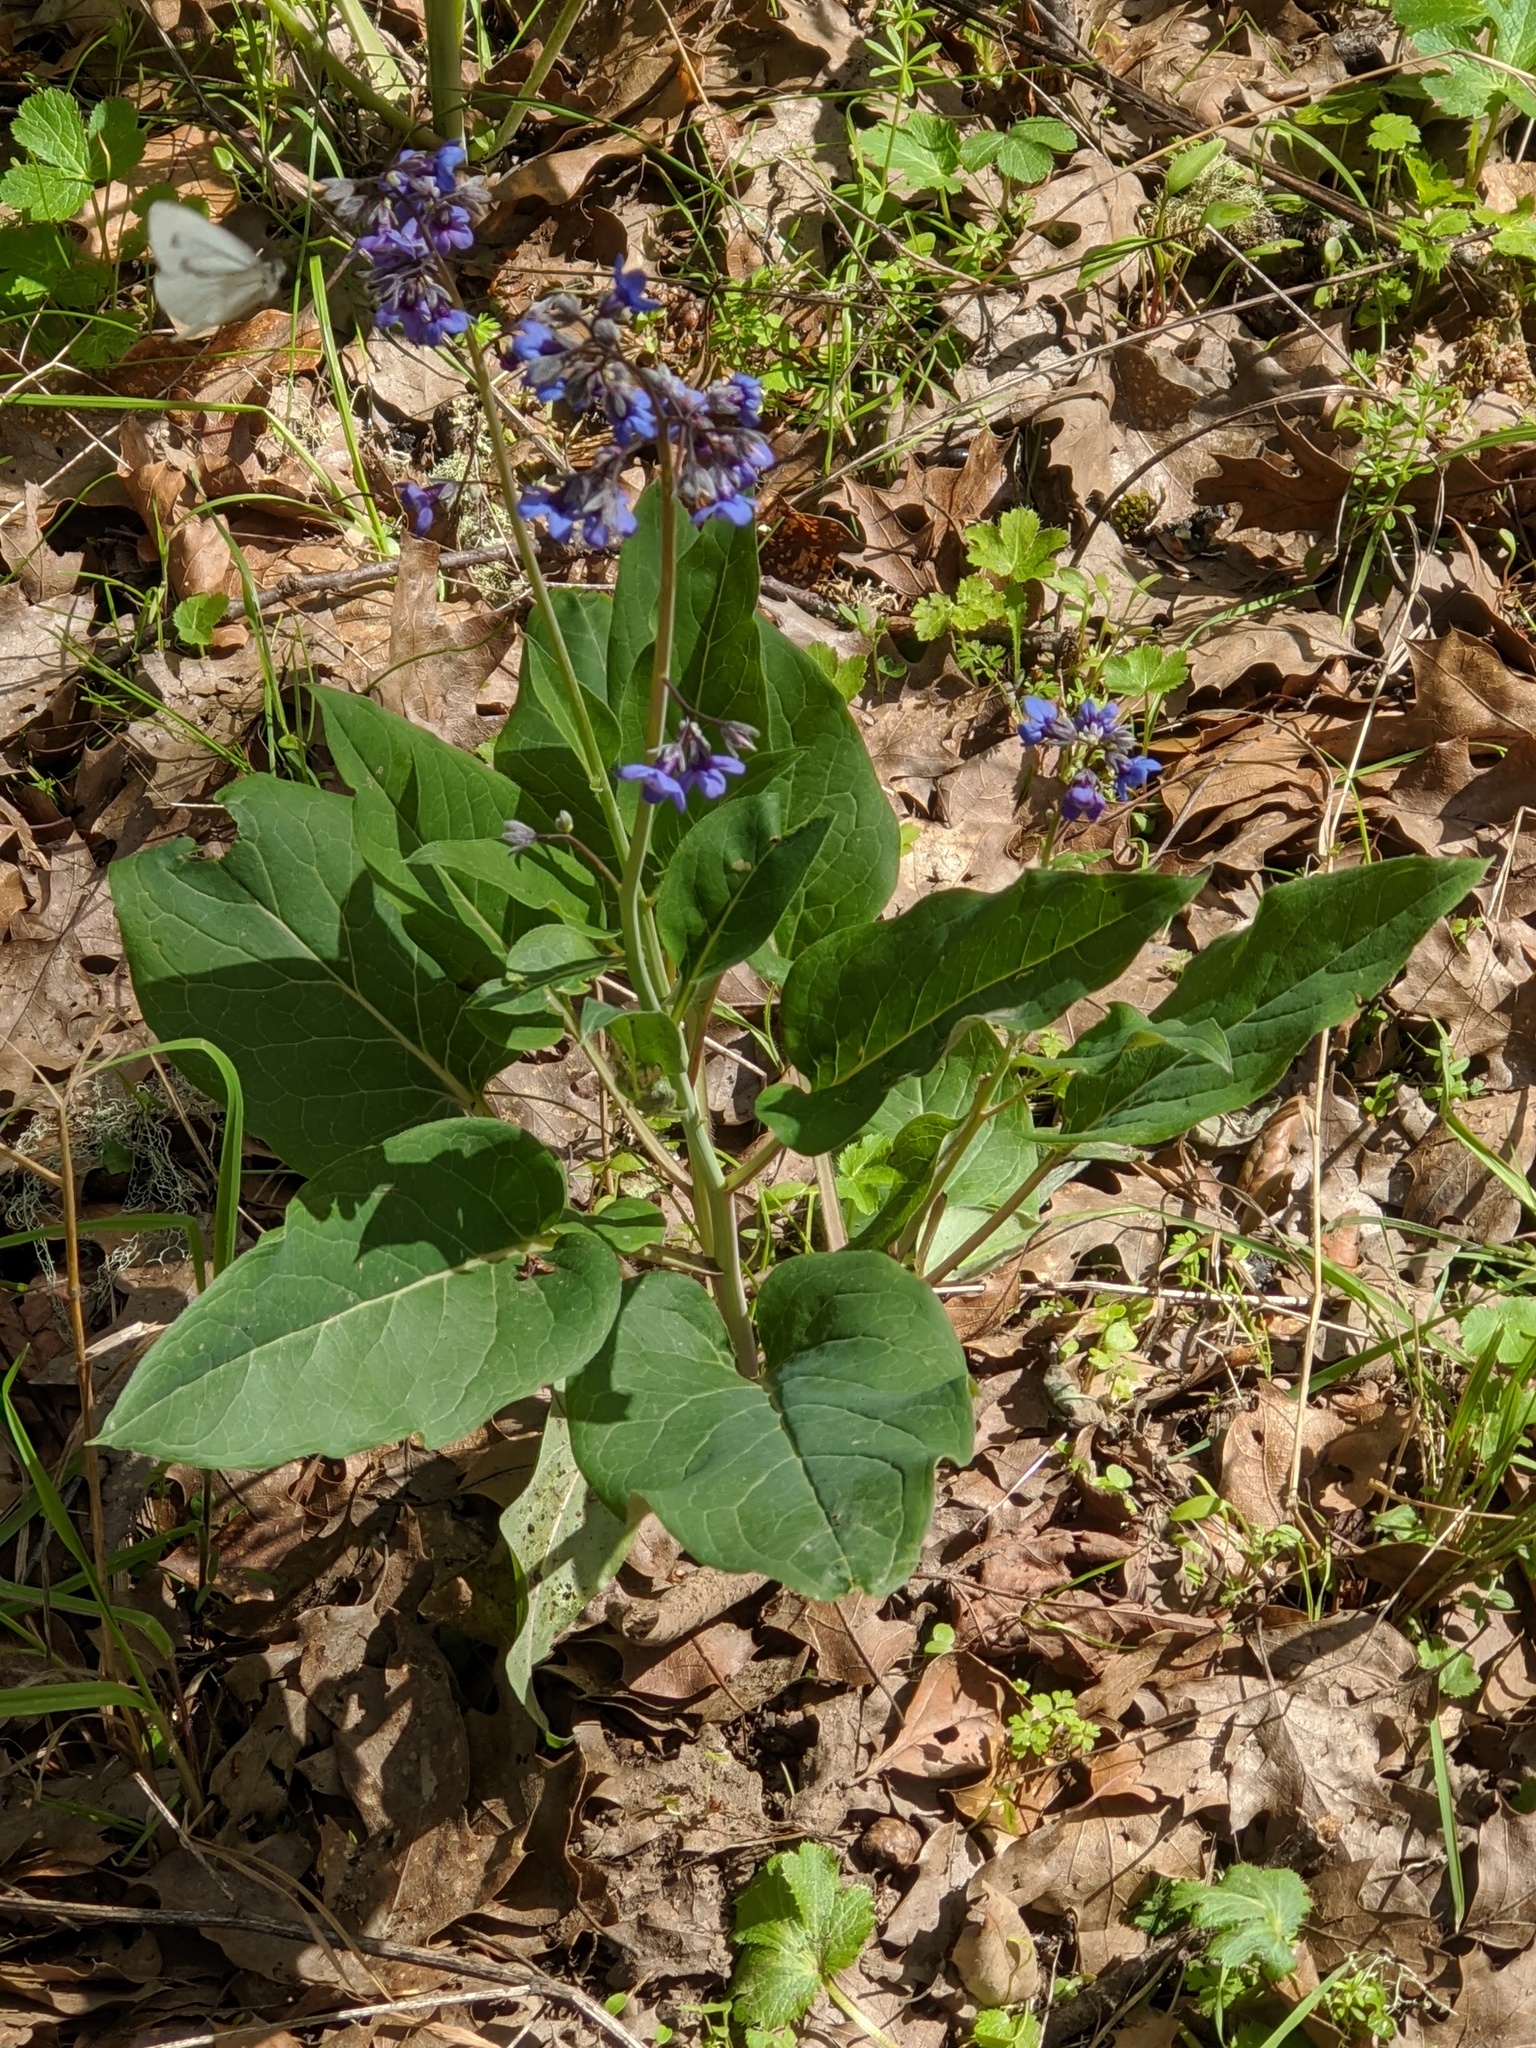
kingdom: Plantae
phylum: Tracheophyta
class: Magnoliopsida
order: Boraginales
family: Boraginaceae
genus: Adelinia
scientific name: Adelinia grande
